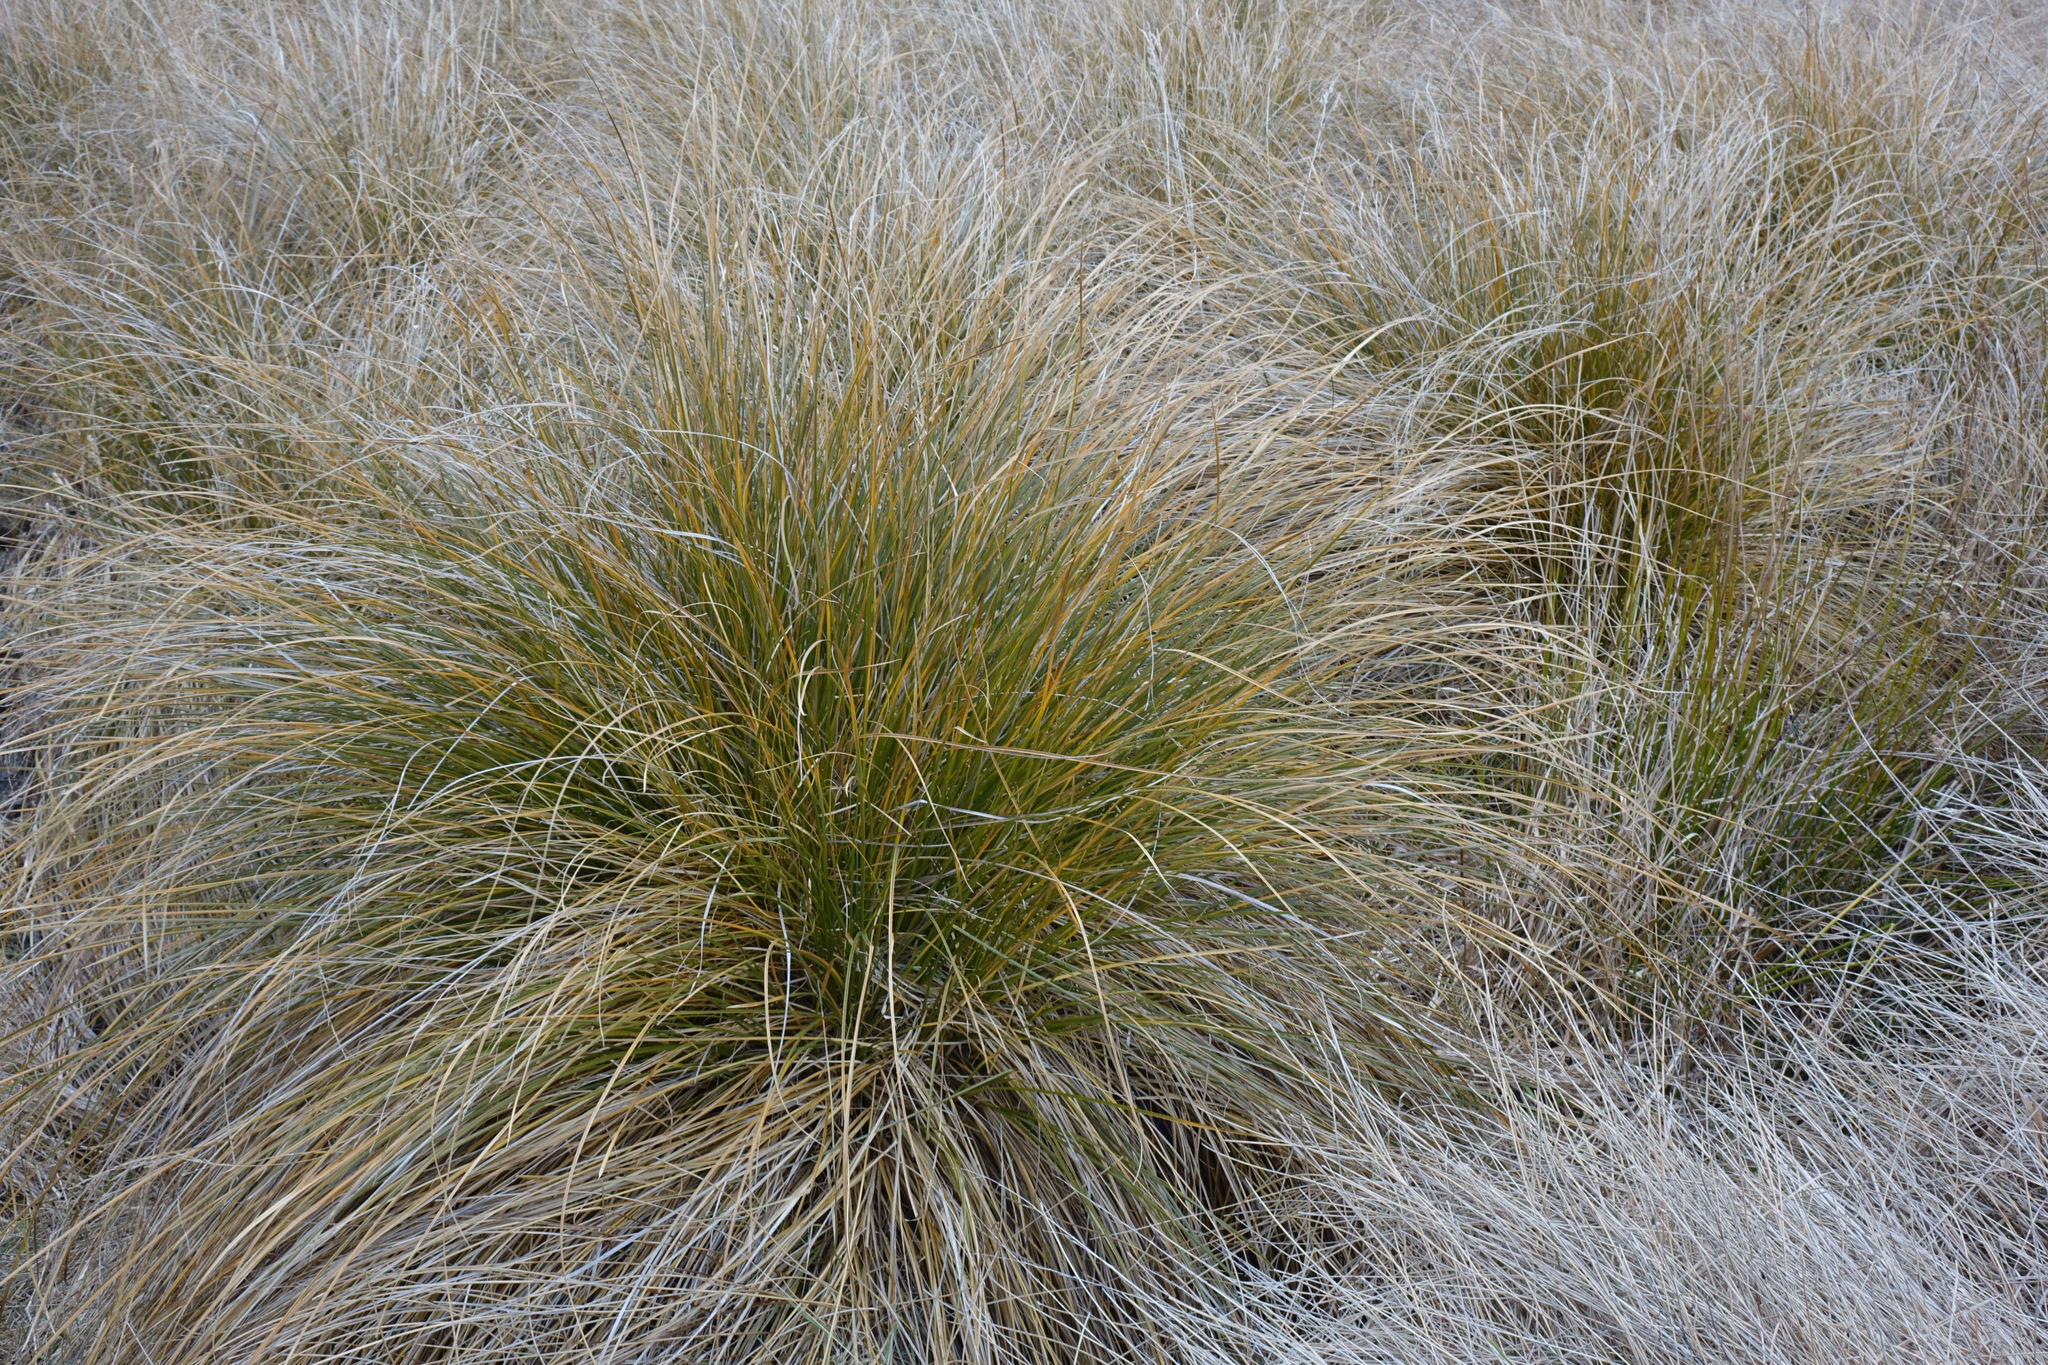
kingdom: Plantae
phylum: Tracheophyta
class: Liliopsida
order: Poales
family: Cyperaceae
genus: Carex
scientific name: Carex secta
